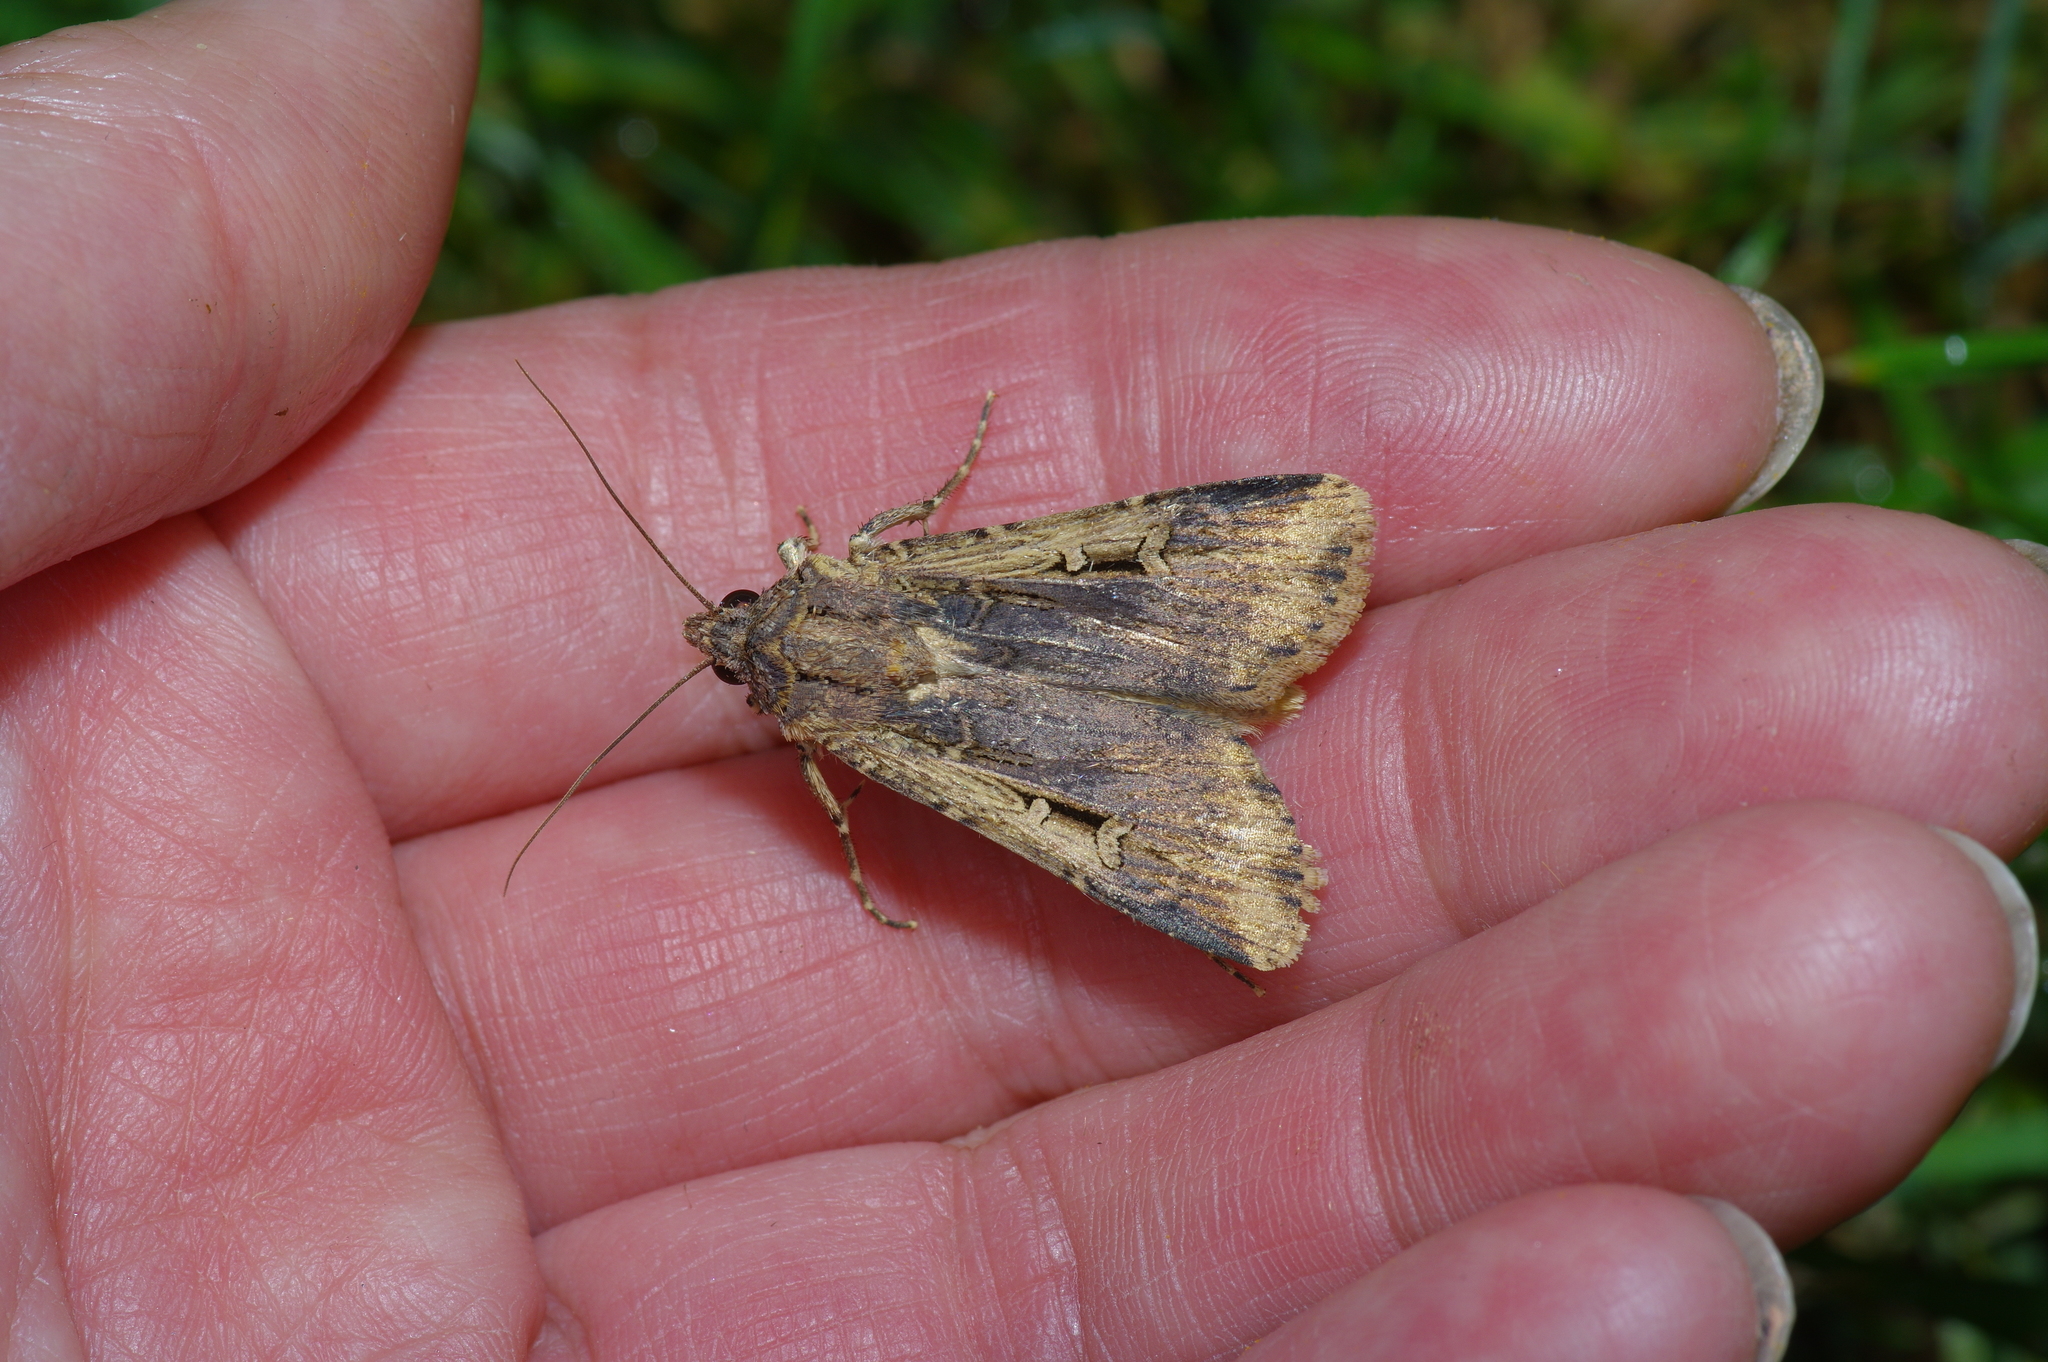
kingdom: Animalia
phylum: Arthropoda
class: Insecta
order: Lepidoptera
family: Noctuidae
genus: Feltia
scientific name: Feltia subterranea
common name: Granulate cutworm
